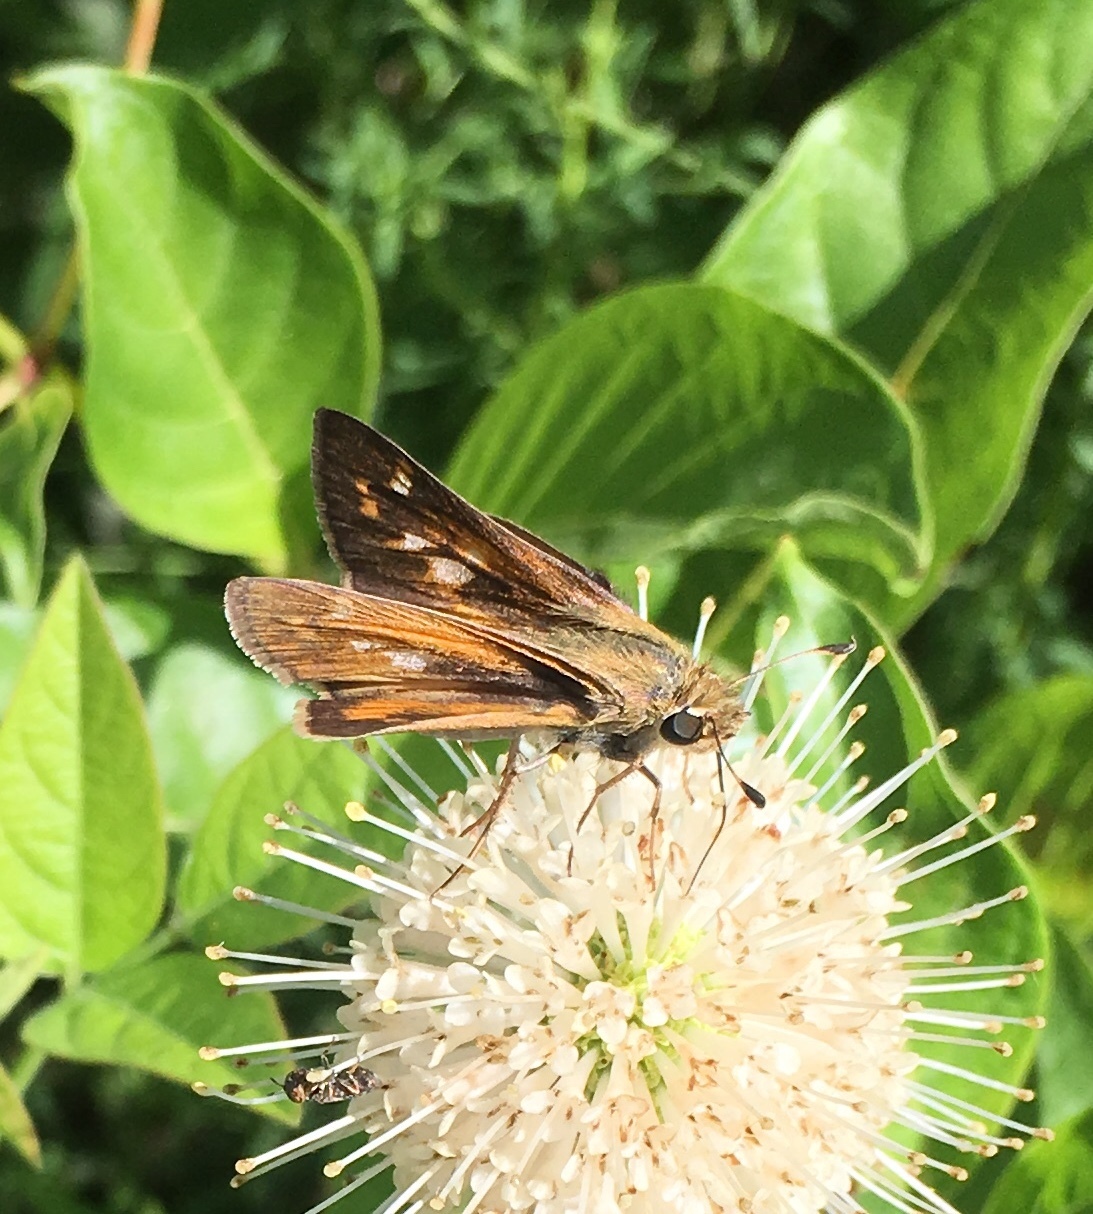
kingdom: Animalia
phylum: Arthropoda
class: Insecta
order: Lepidoptera
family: Hesperiidae
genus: Atalopedes
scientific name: Atalopedes
